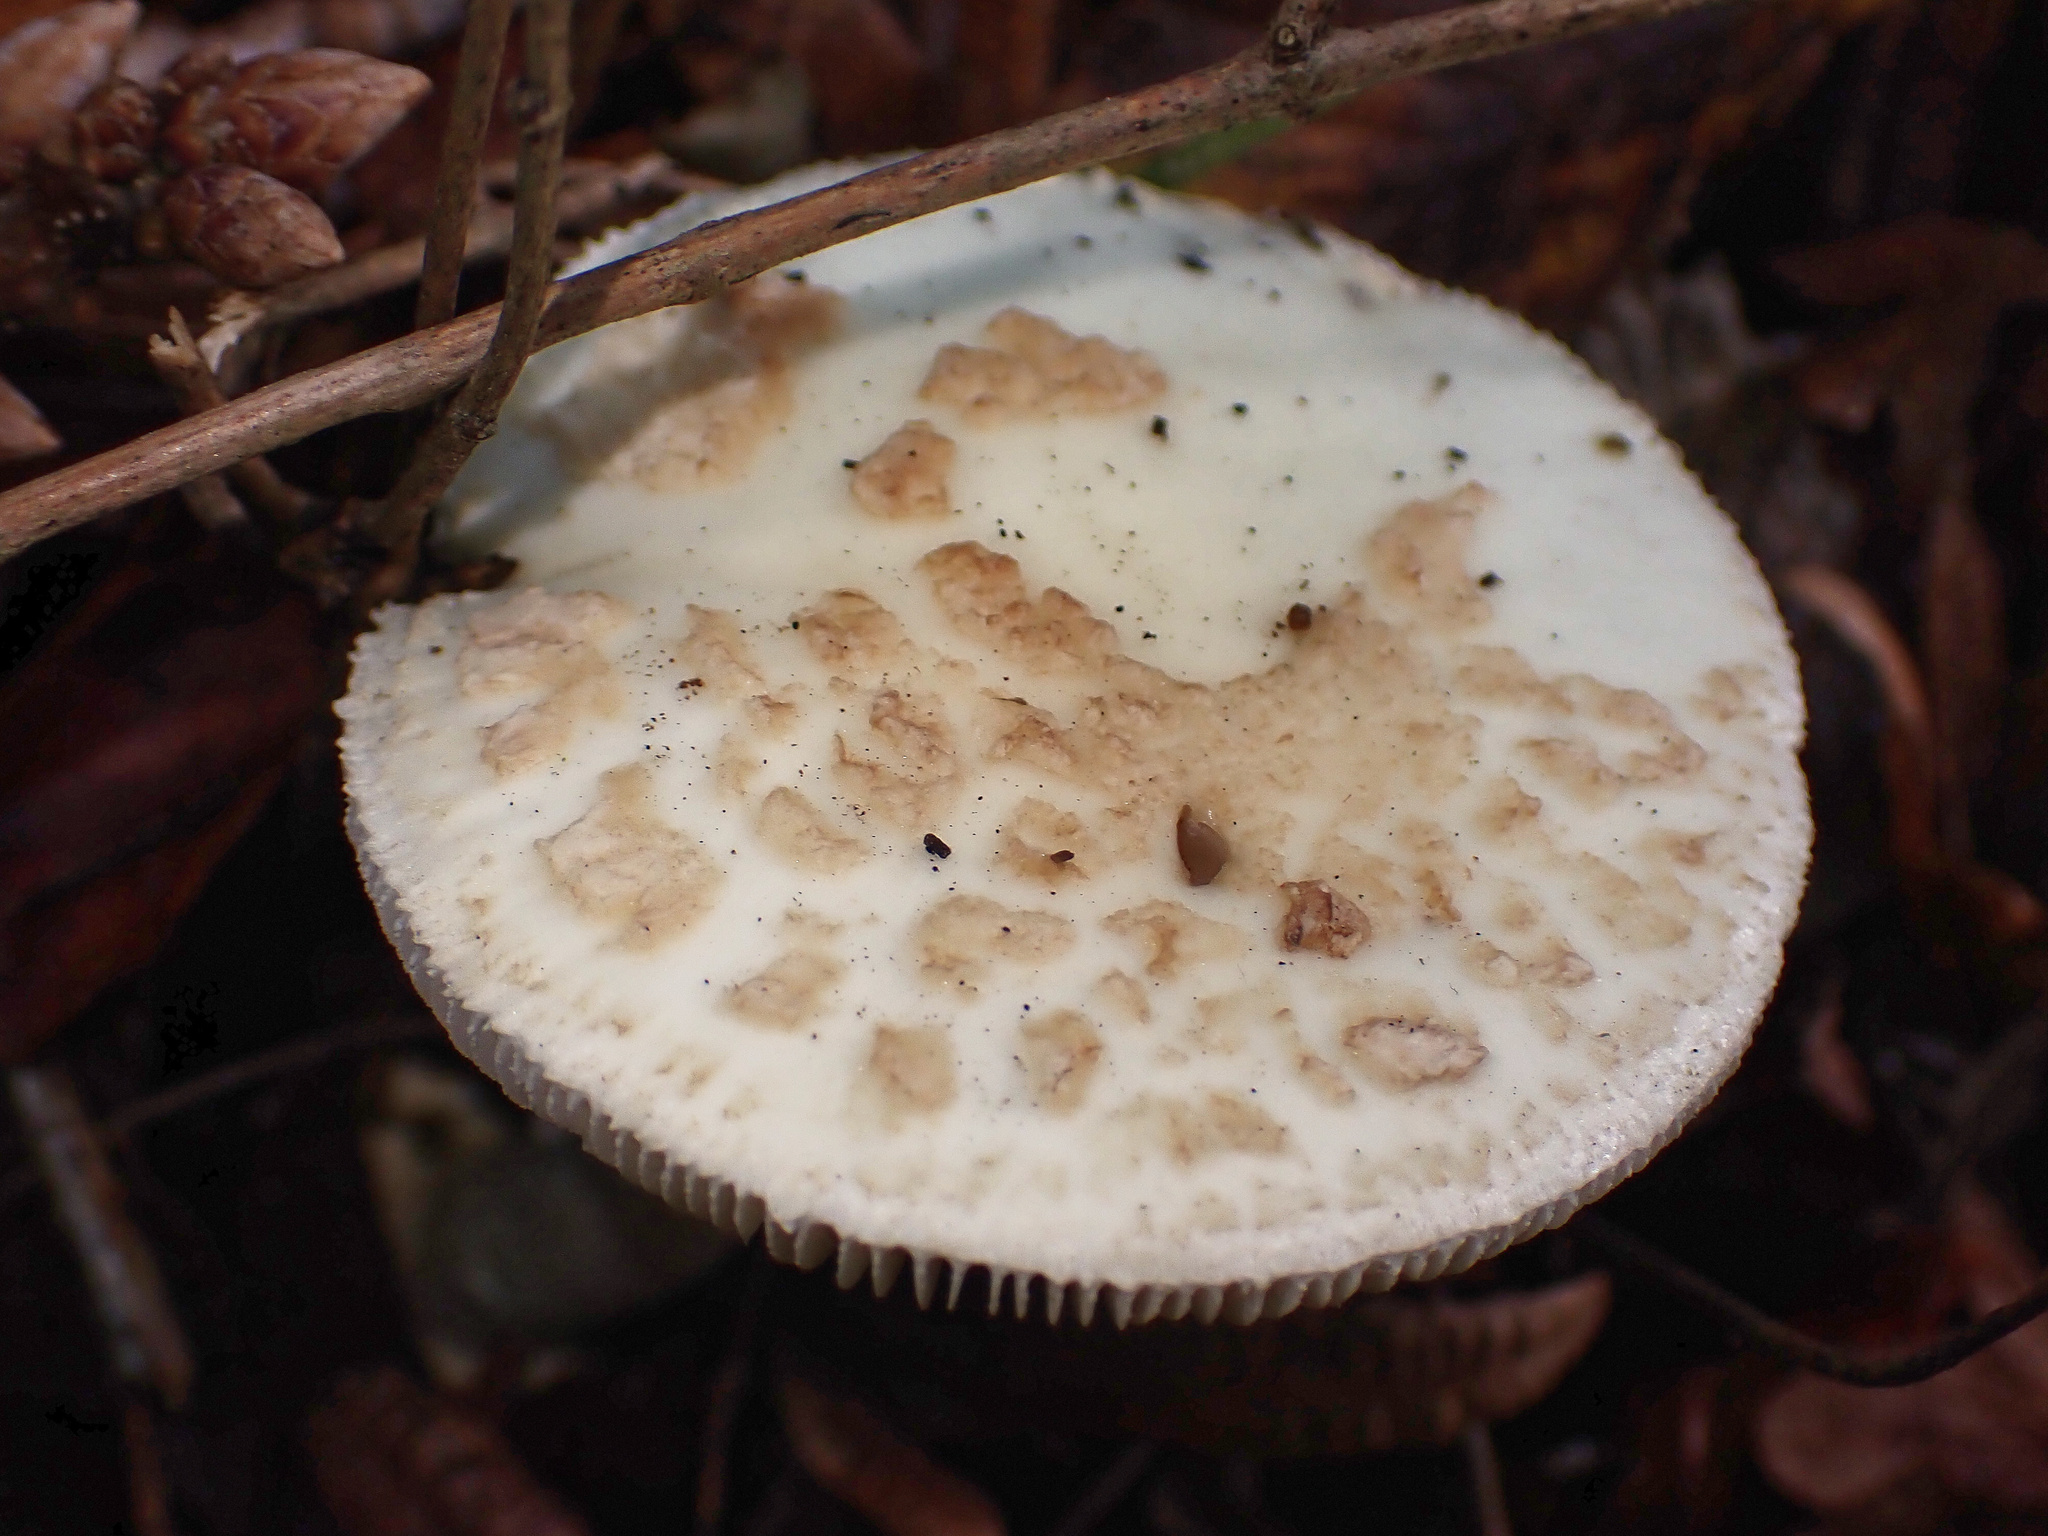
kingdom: Fungi
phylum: Basidiomycota
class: Agaricomycetes
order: Agaricales
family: Amanitaceae
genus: Amanita
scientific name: Amanita citrina
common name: False death-cap
